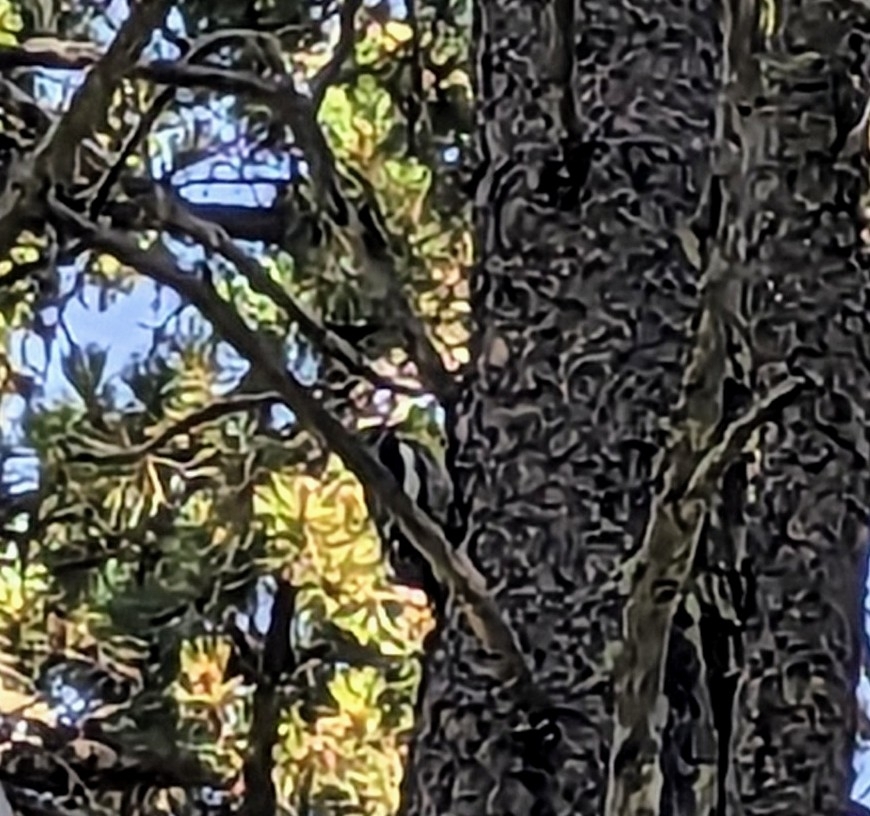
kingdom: Animalia
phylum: Chordata
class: Aves
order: Piciformes
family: Picidae
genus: Sphyrapicus
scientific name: Sphyrapicus nuchalis
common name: Red-naped sapsucker
